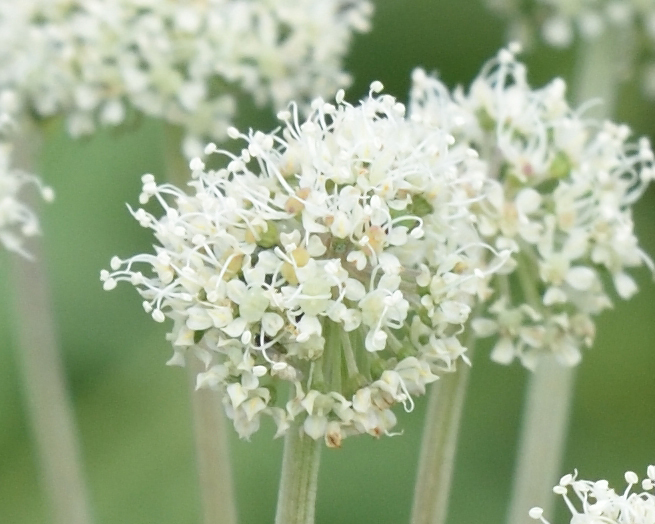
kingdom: Plantae
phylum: Tracheophyta
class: Magnoliopsida
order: Apiales
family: Apiaceae
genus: Angelica
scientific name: Angelica sylvestris
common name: Wild angelica
